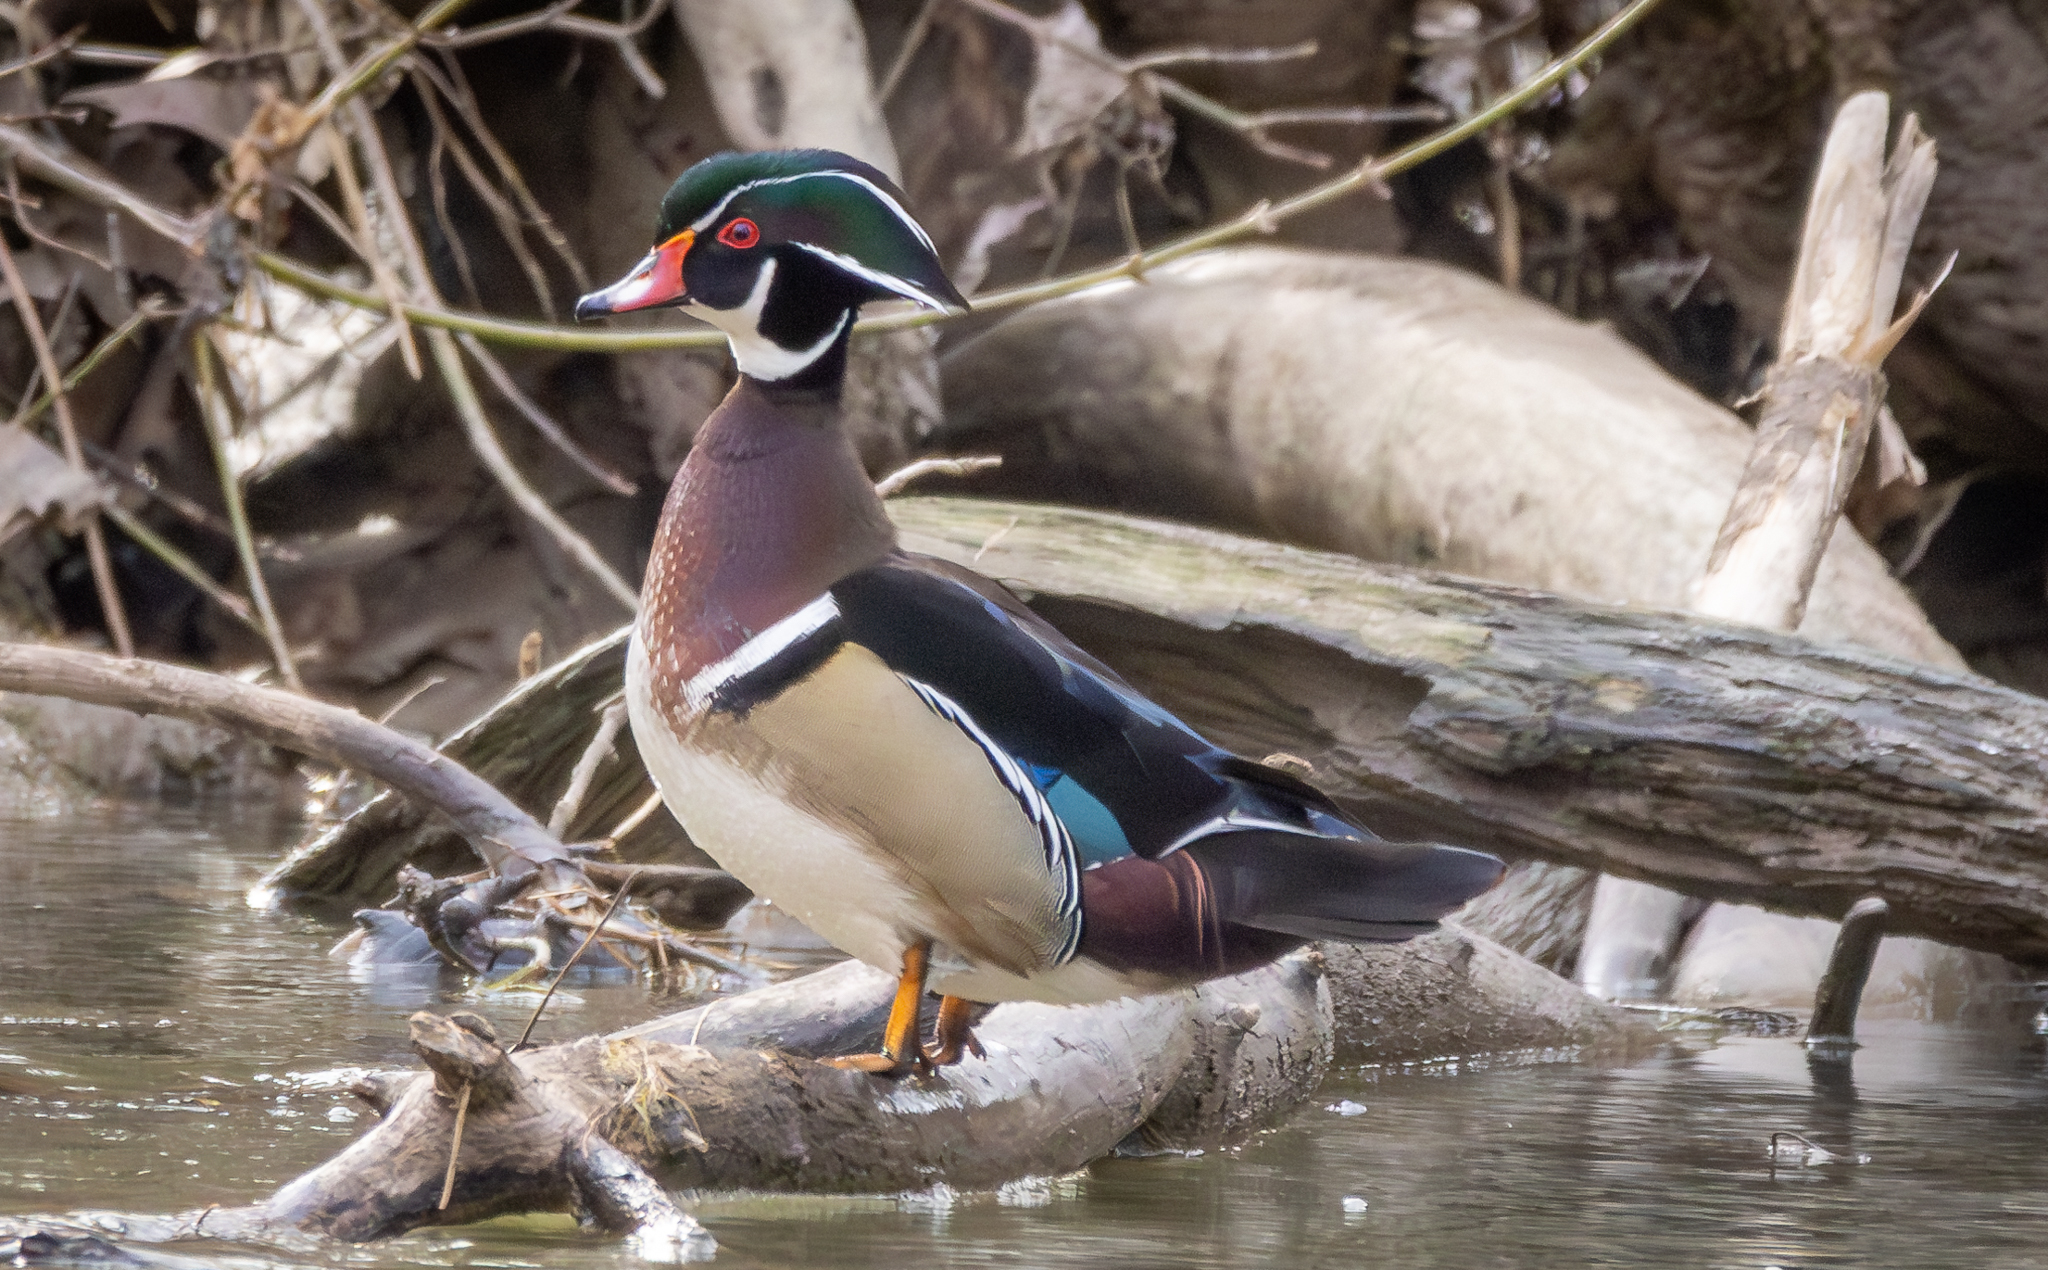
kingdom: Animalia
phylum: Chordata
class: Aves
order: Anseriformes
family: Anatidae
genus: Aix
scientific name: Aix sponsa
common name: Wood duck
